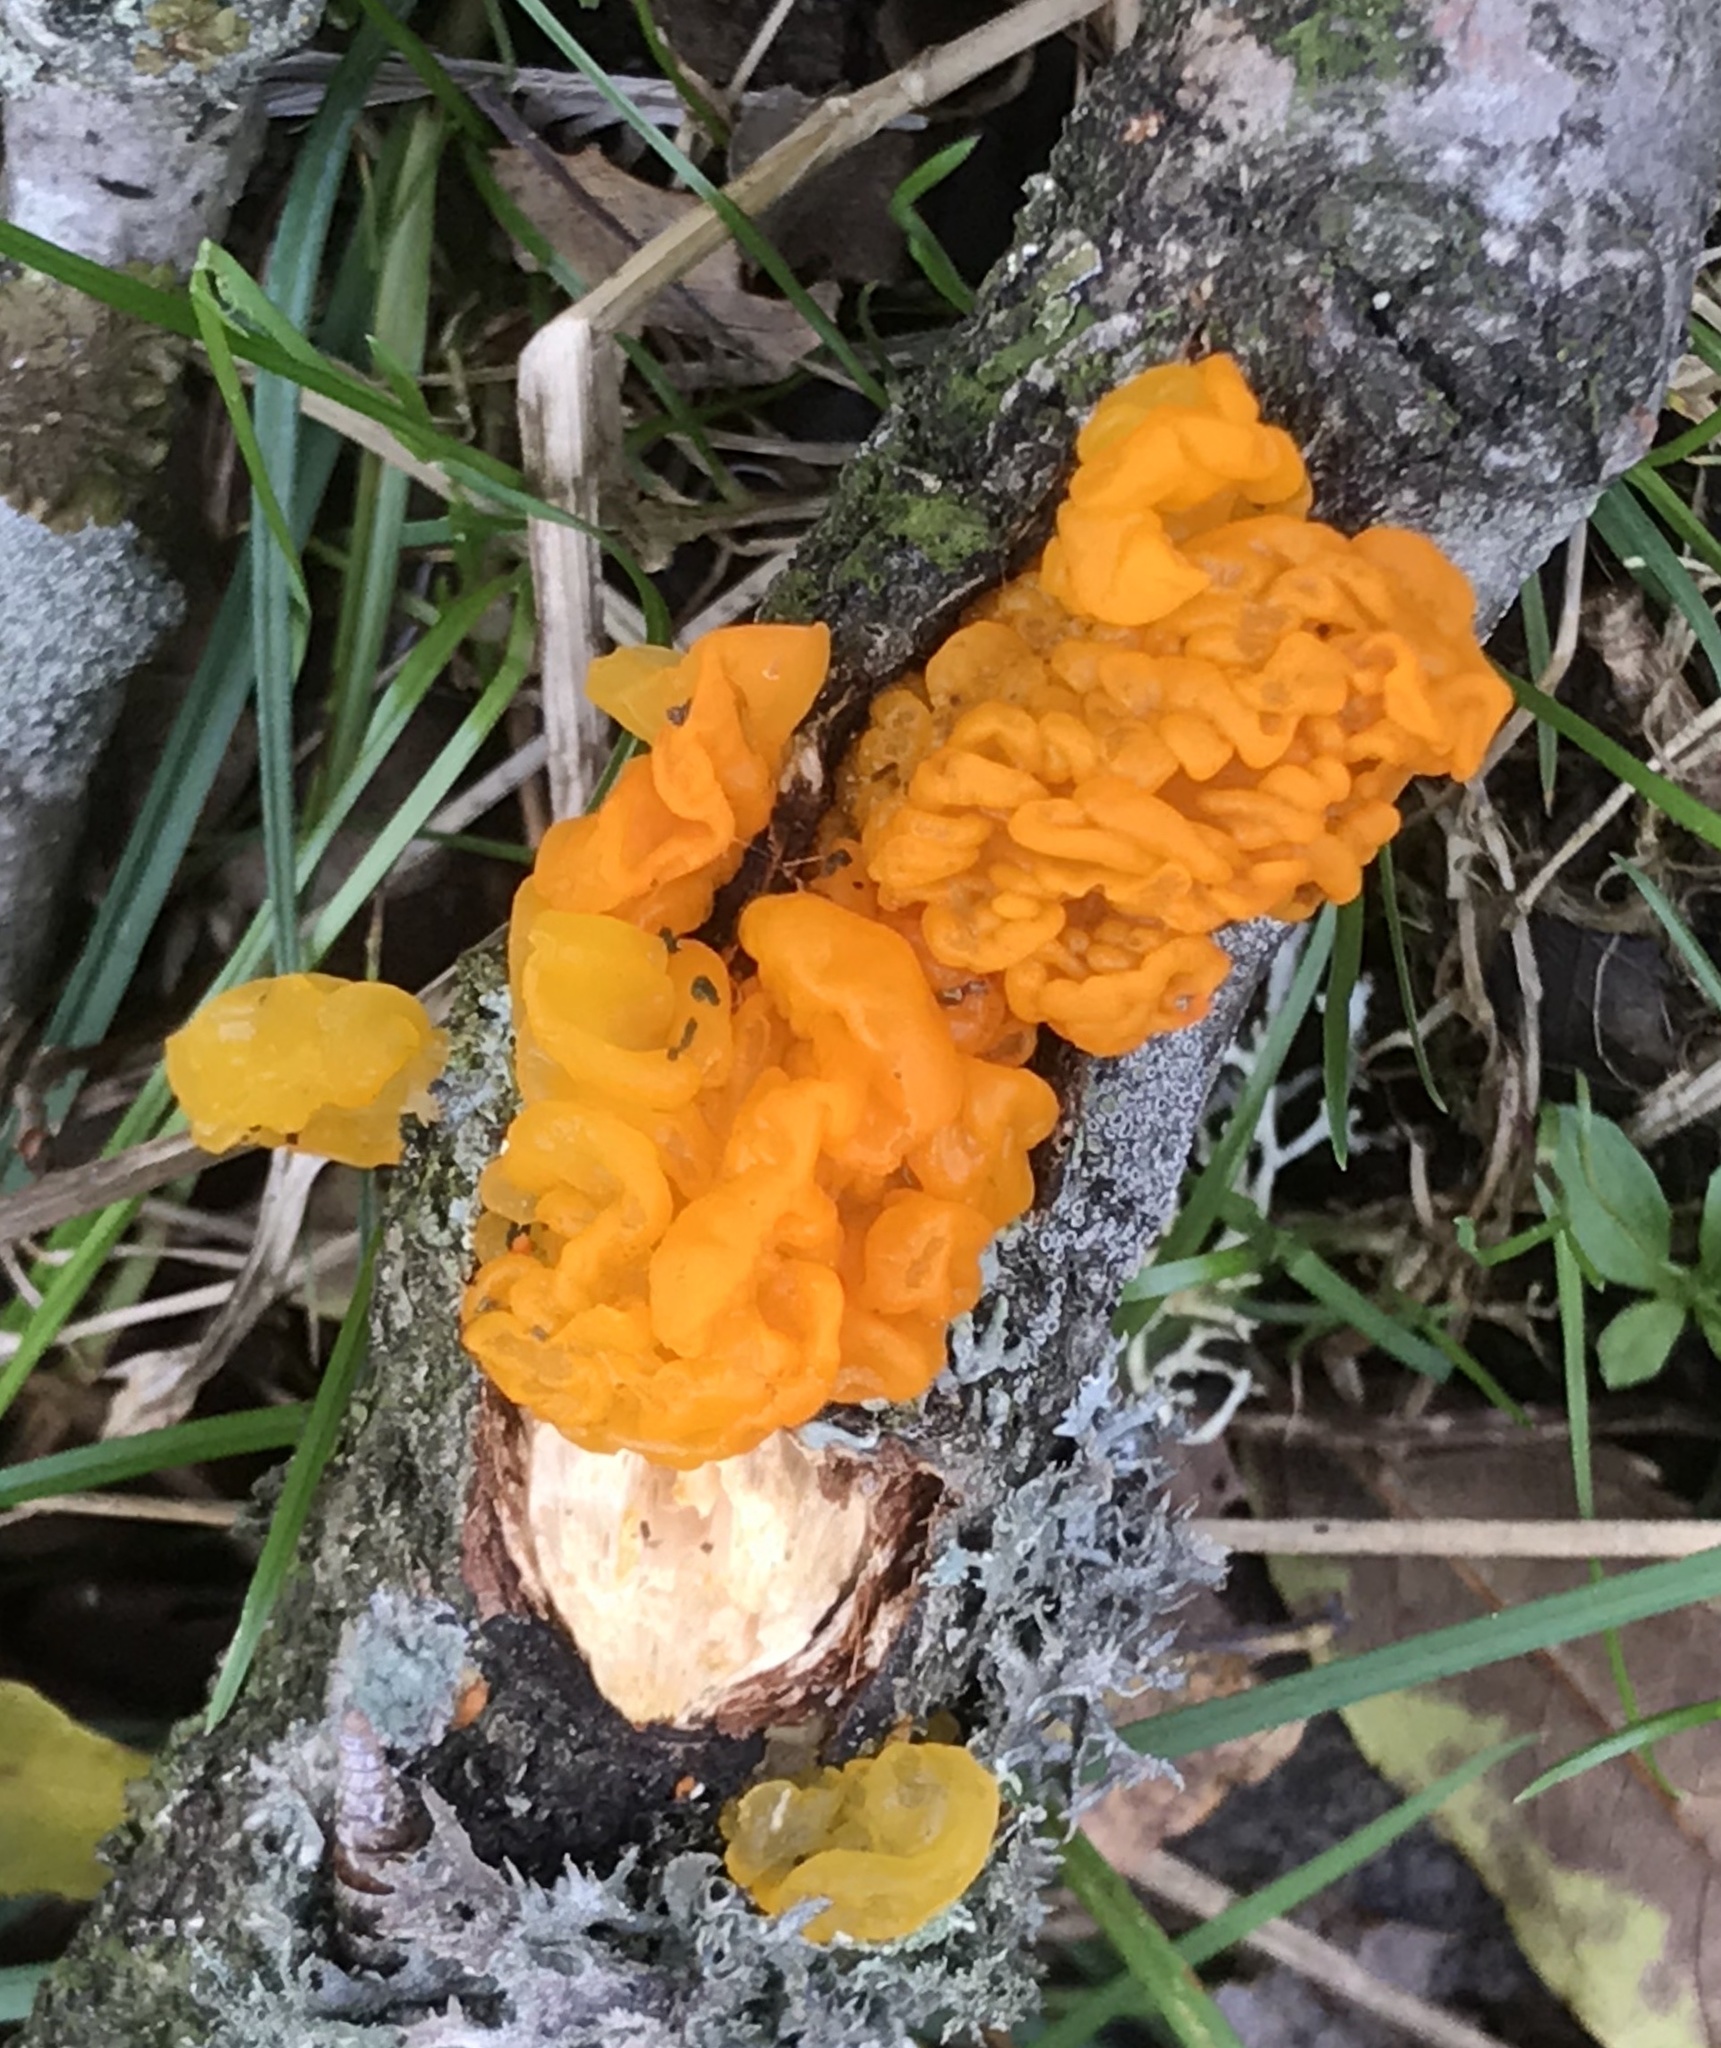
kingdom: Fungi
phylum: Basidiomycota
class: Tremellomycetes
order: Tremellales
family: Tremellaceae
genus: Tremella
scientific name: Tremella mesenterica
